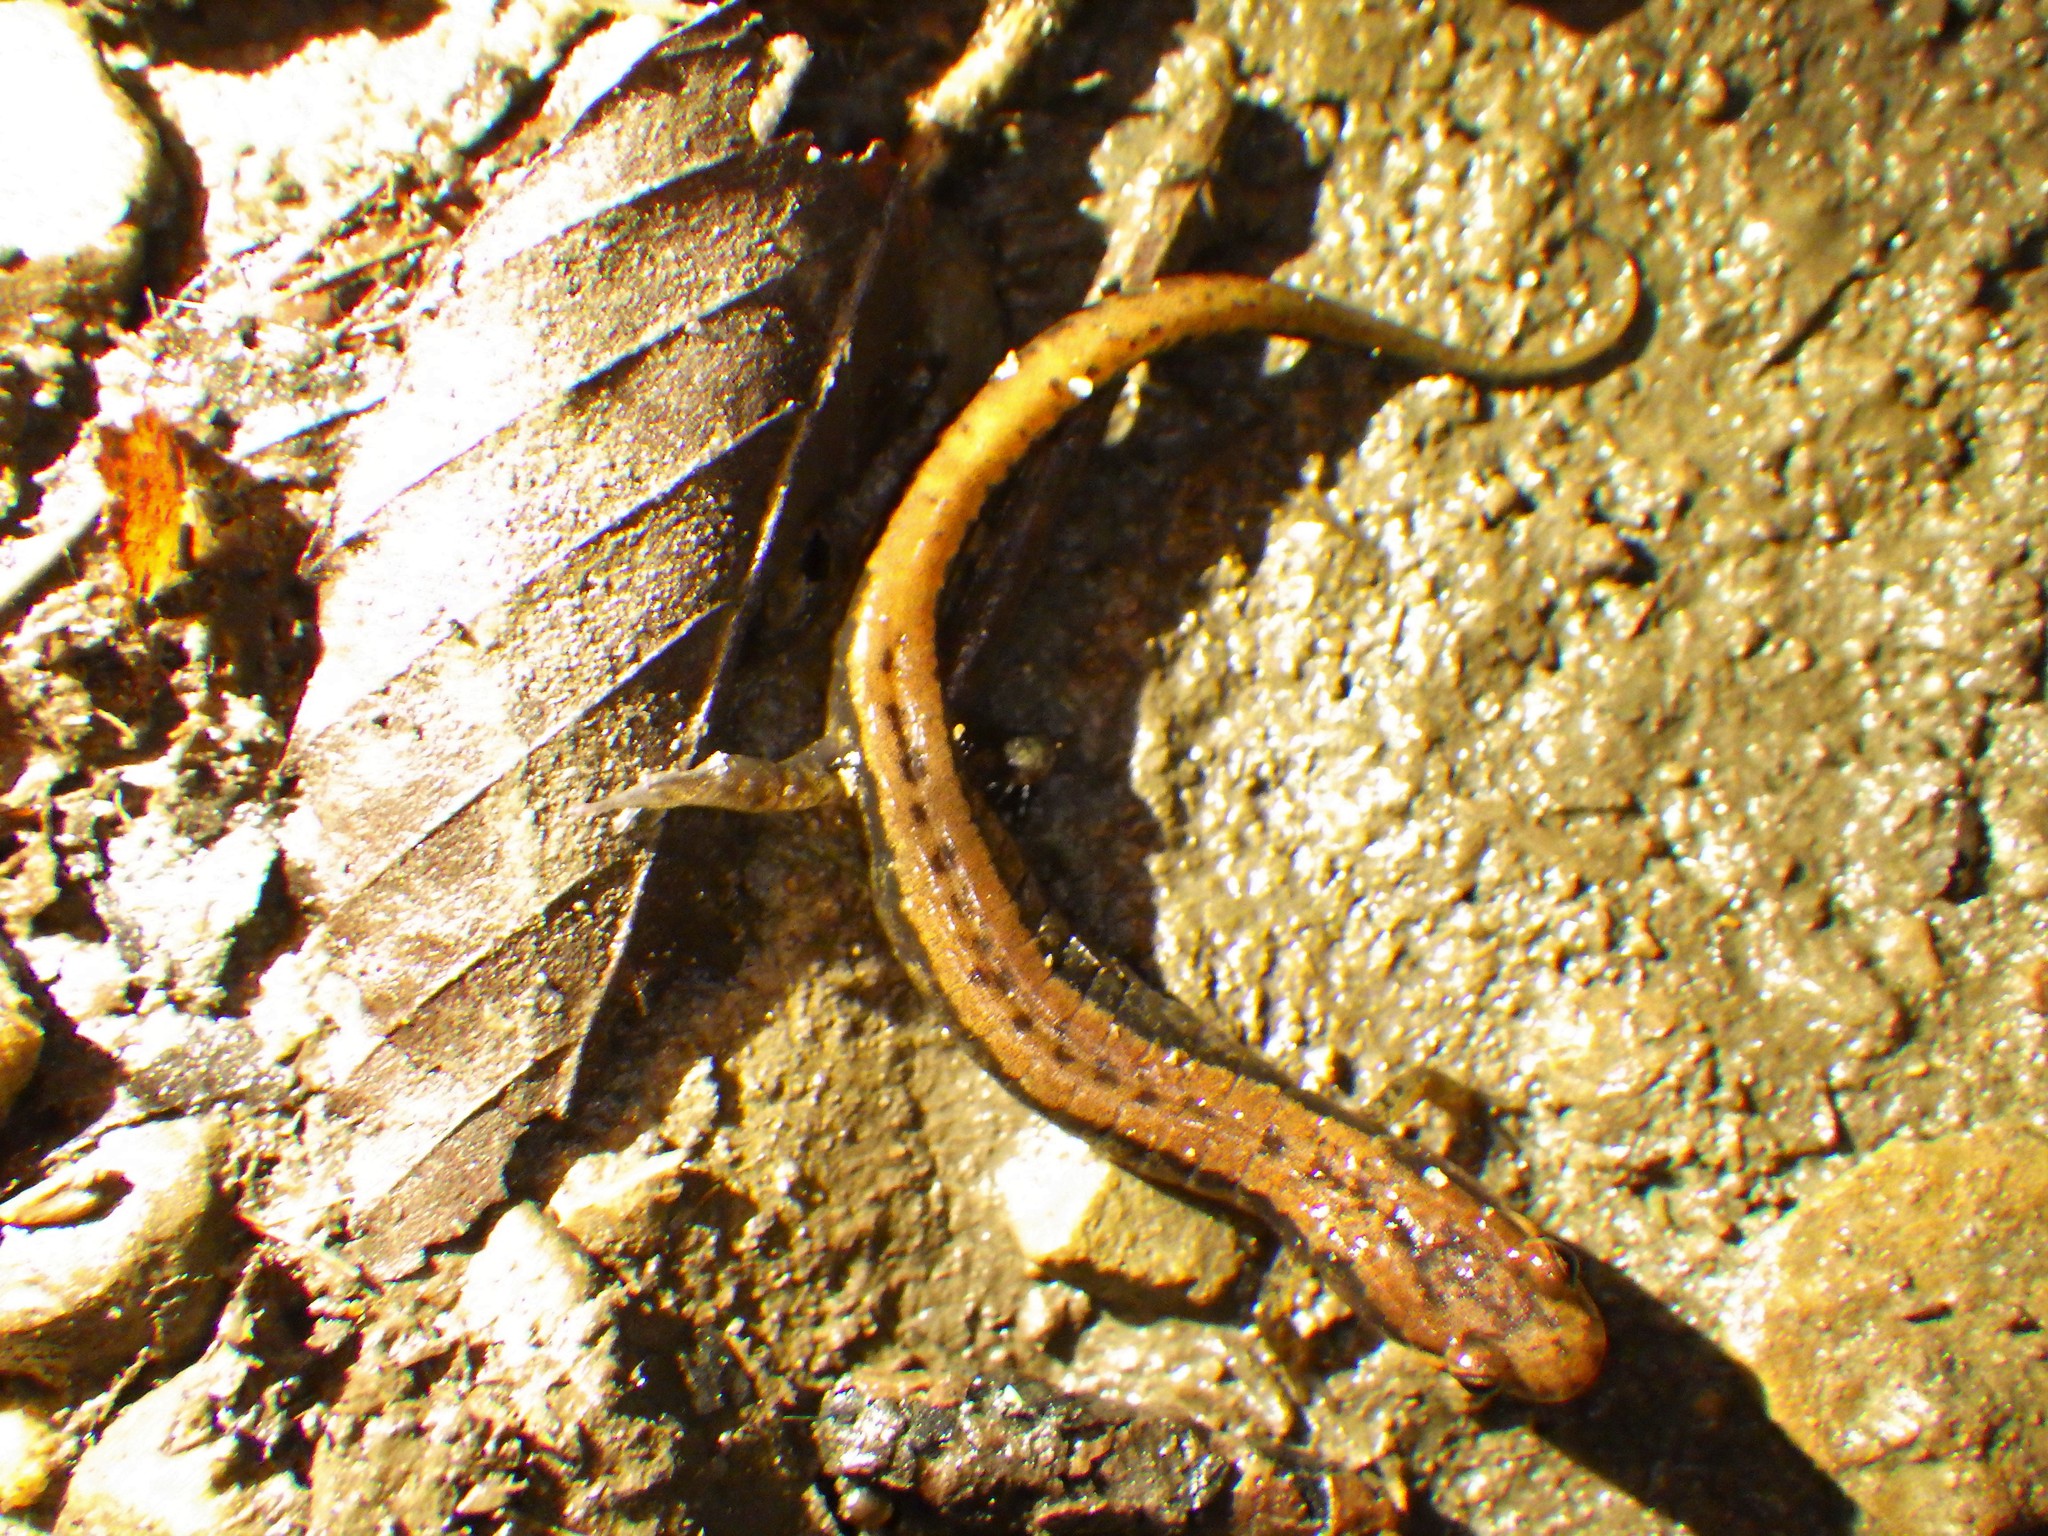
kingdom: Animalia
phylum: Chordata
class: Amphibia
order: Caudata
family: Plethodontidae
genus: Desmognathus
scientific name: Desmognathus ochrophaeus
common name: Allegheny mountain dusky salamander
